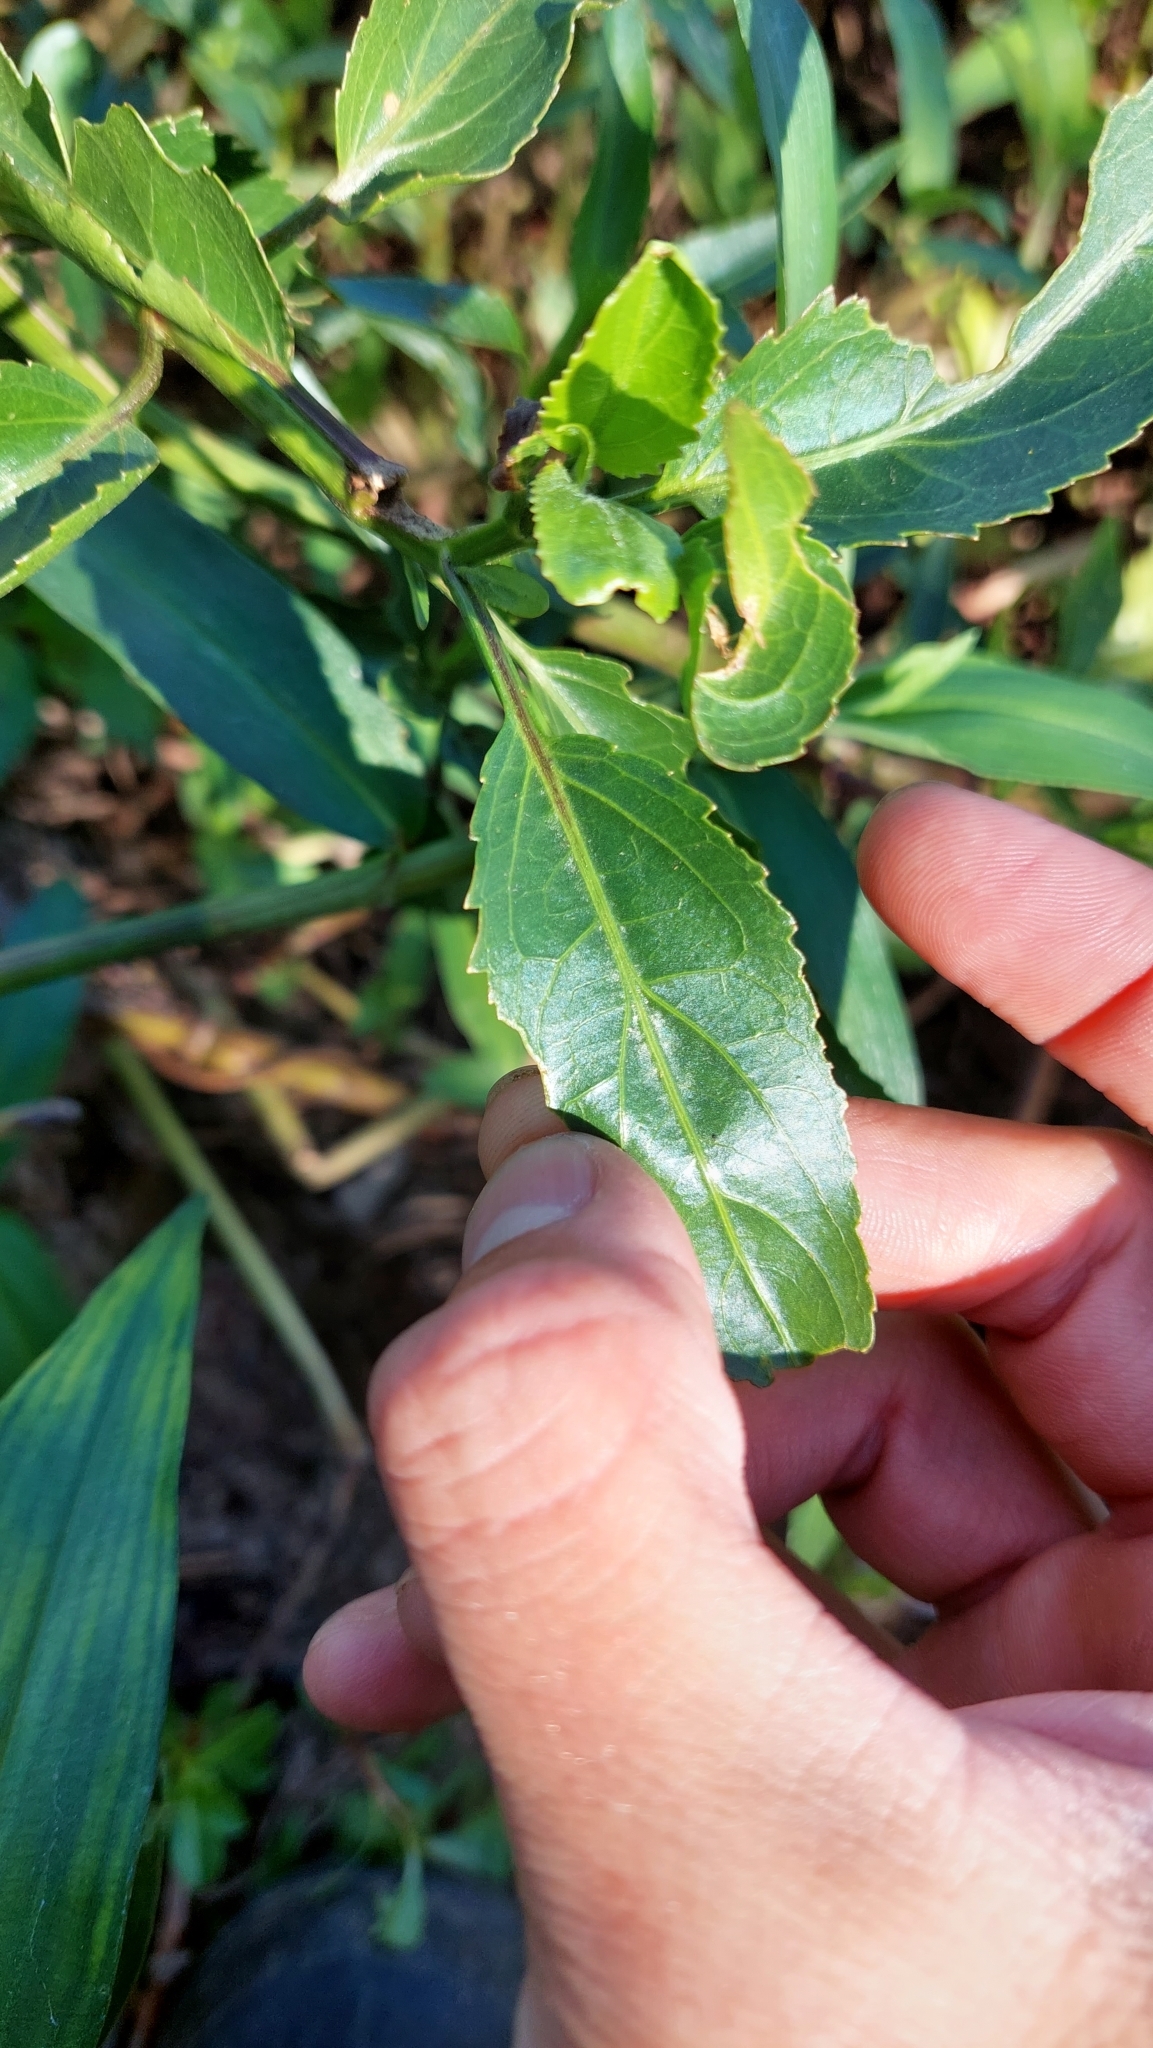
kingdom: Plantae
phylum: Tracheophyta
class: Magnoliopsida
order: Asterales
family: Asteraceae
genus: Gymnocoronis
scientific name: Gymnocoronis spilanthoides
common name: Senegal teaplant
